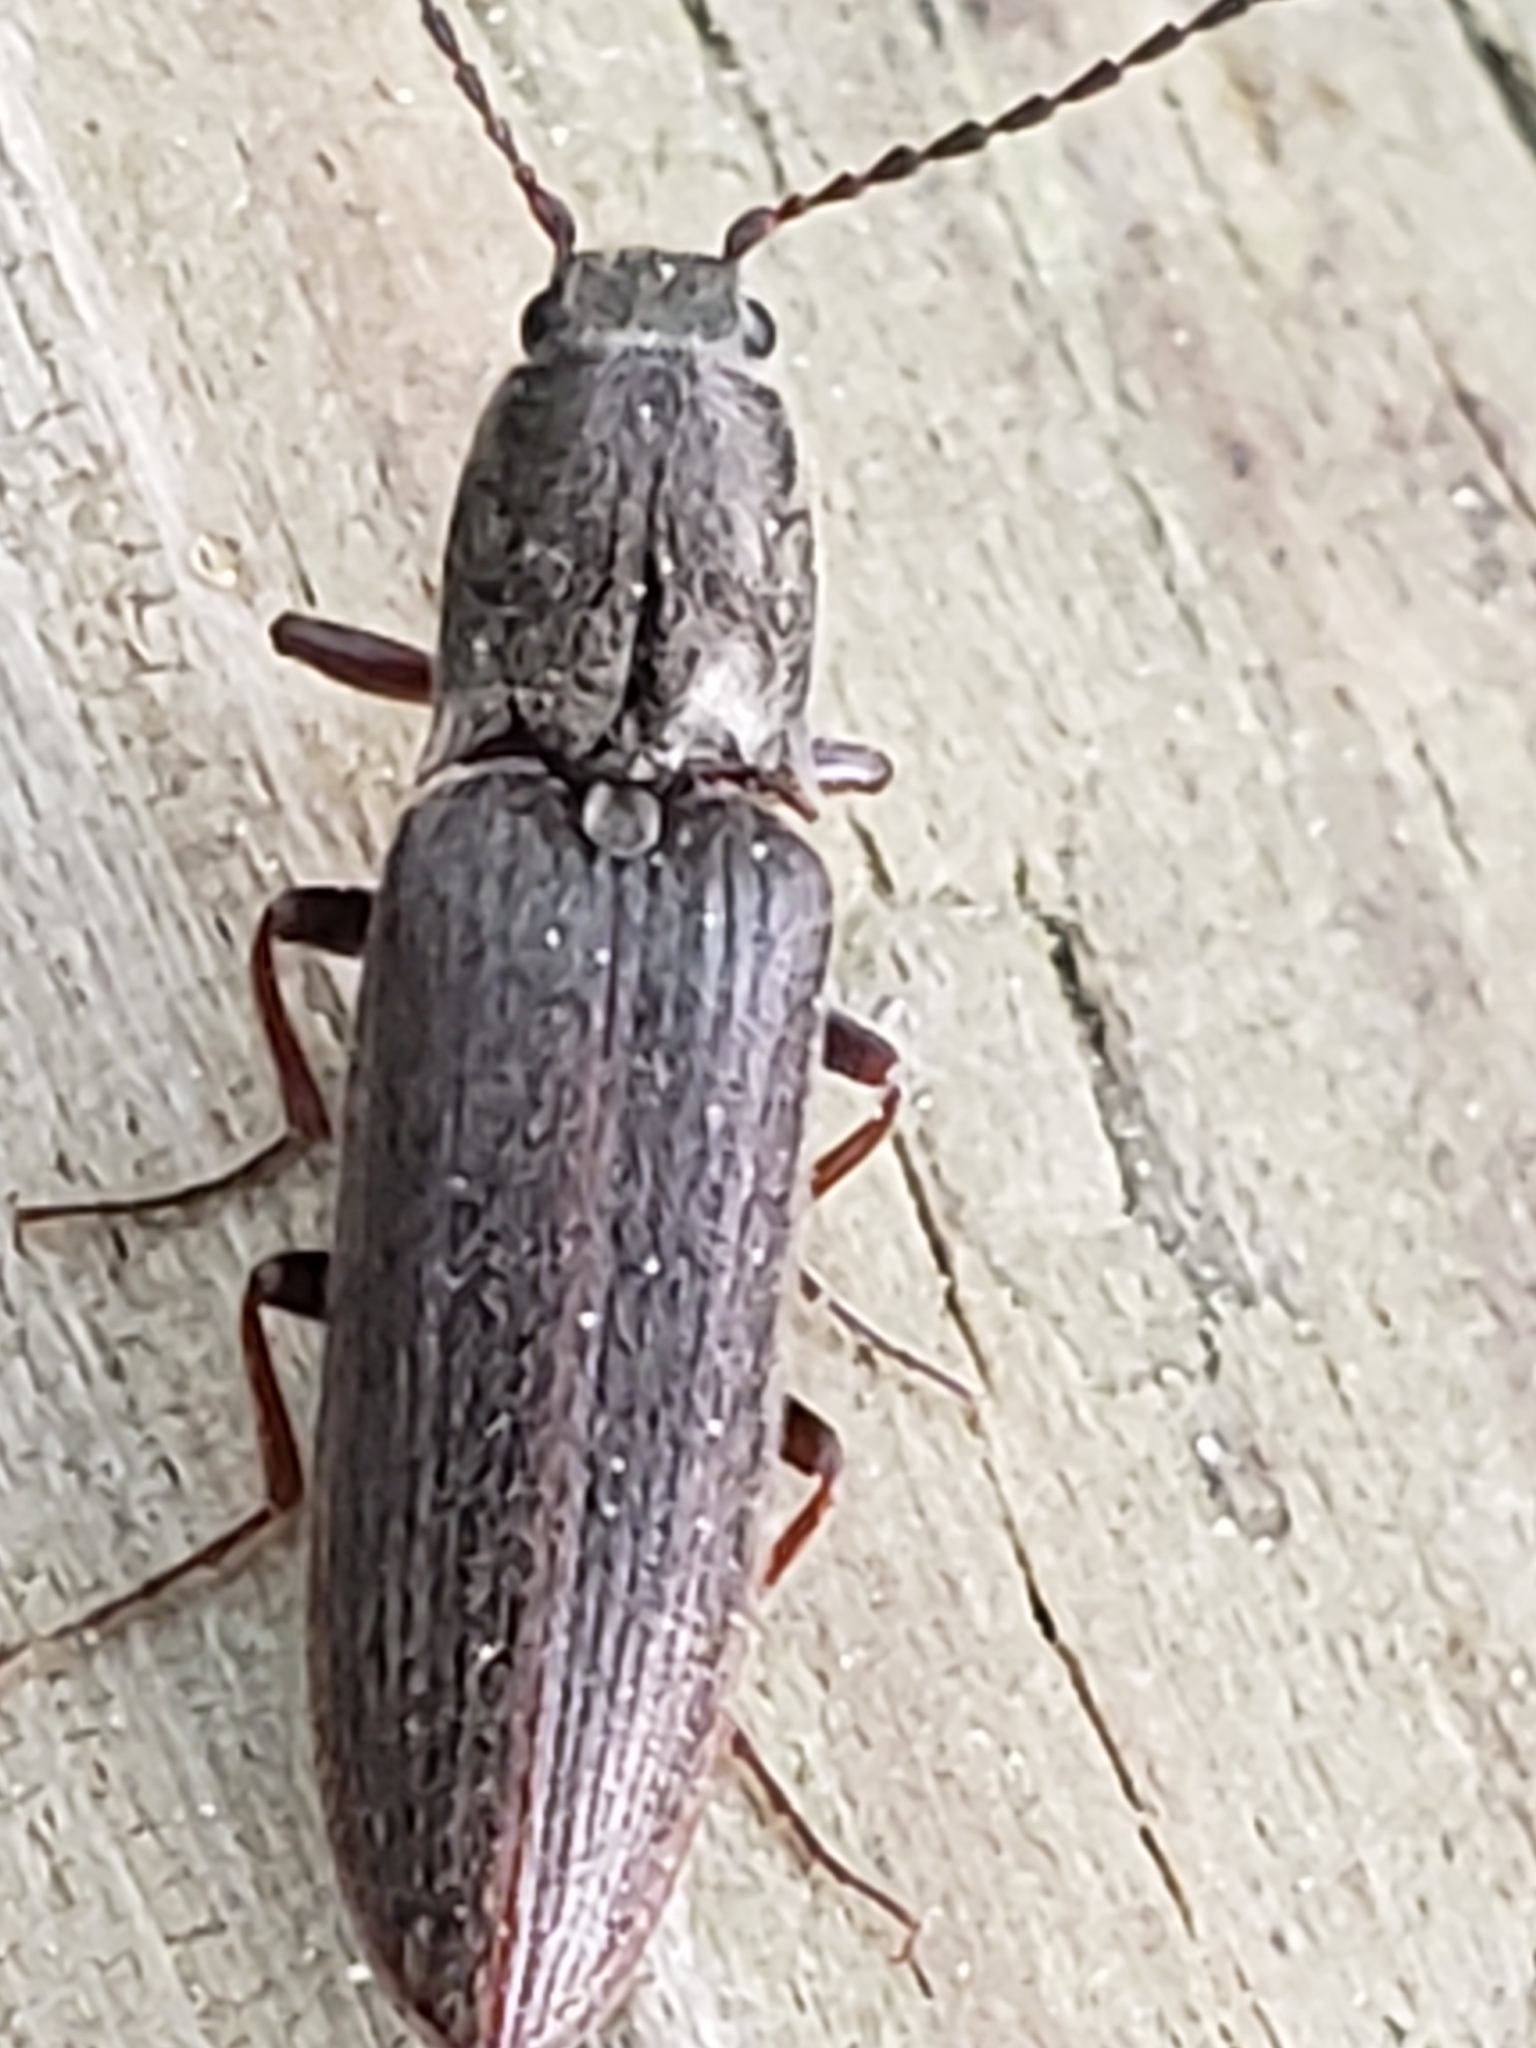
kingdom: Animalia
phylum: Arthropoda
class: Insecta
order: Coleoptera
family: Elateridae
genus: Sylvanelater
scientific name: Sylvanelater cylindriformis
